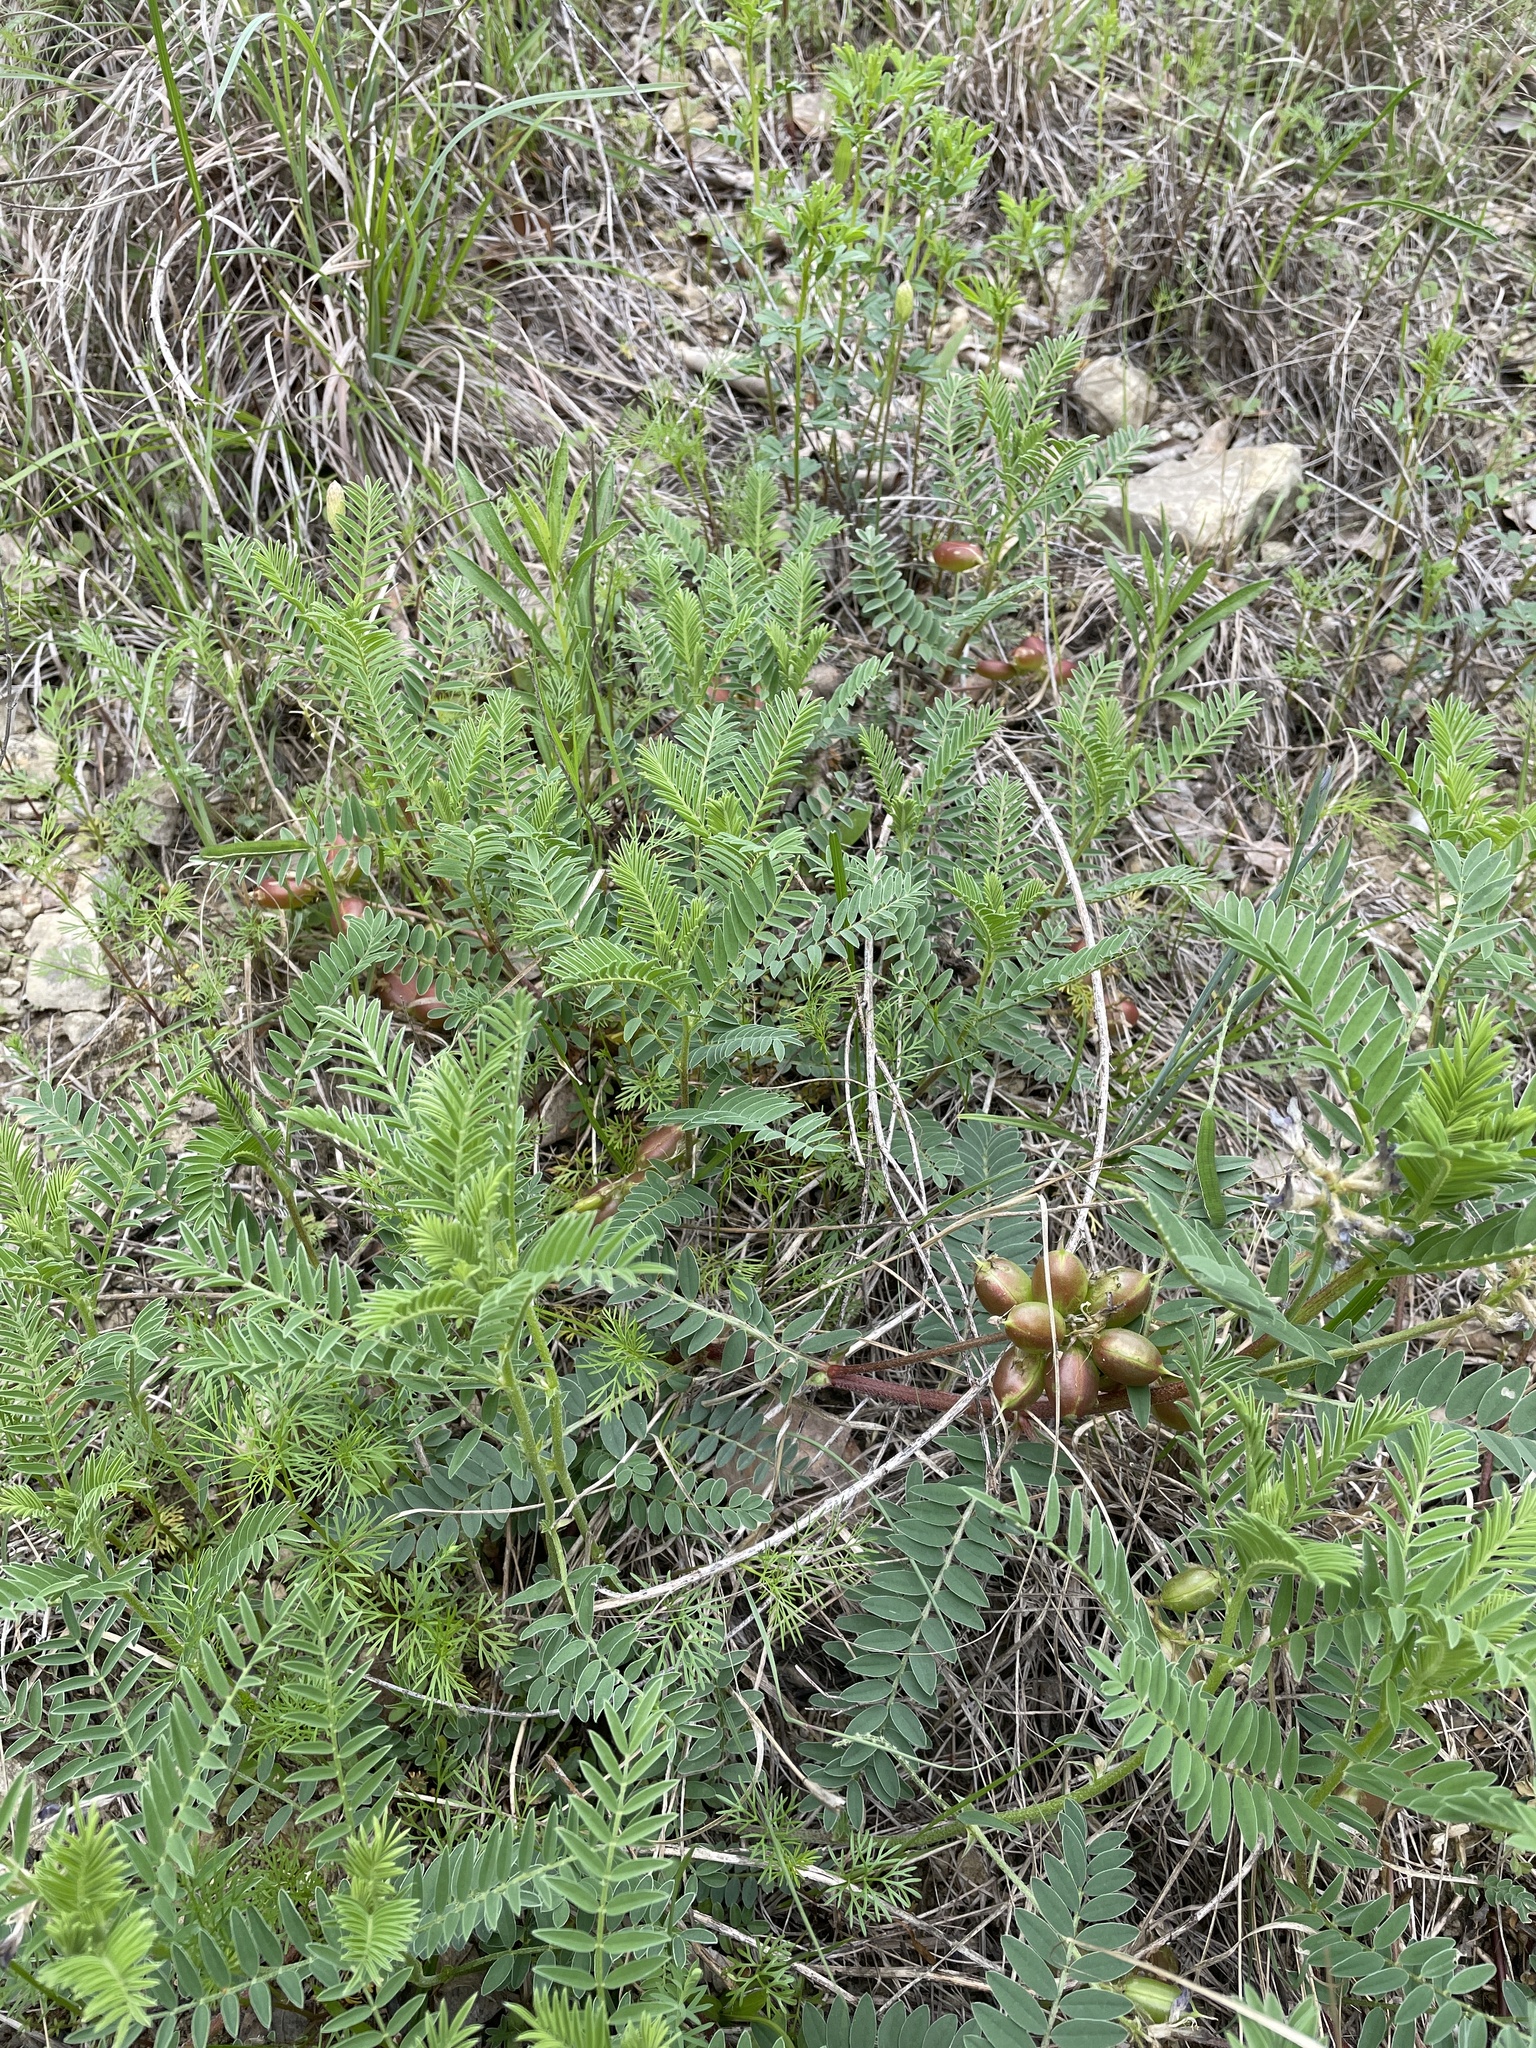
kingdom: Plantae
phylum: Tracheophyta
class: Magnoliopsida
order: Fabales
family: Fabaceae
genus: Astragalus
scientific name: Astragalus crassicarpus
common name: Ground-plum milk-vetch
